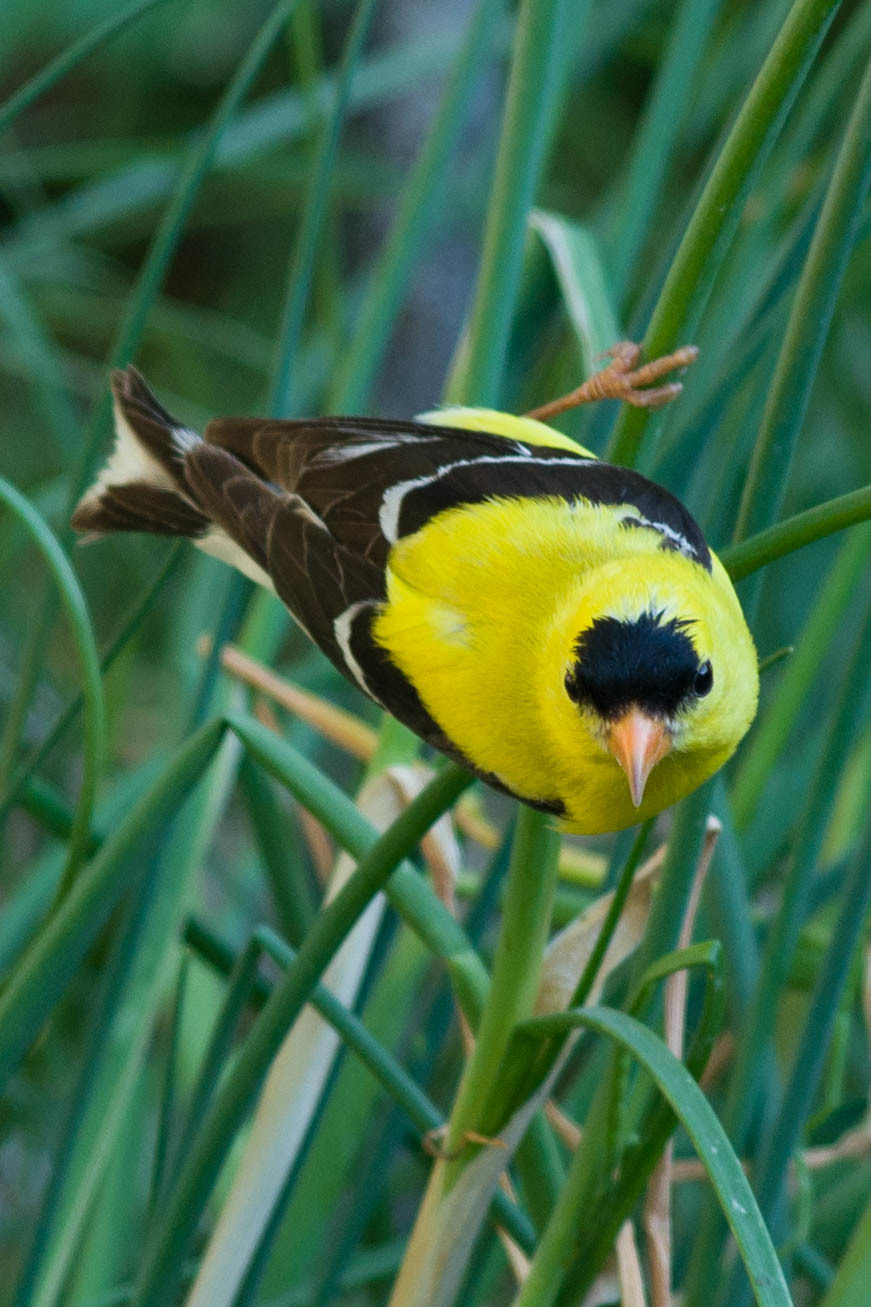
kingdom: Animalia
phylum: Chordata
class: Aves
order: Passeriformes
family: Fringillidae
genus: Spinus
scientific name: Spinus tristis
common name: American goldfinch
